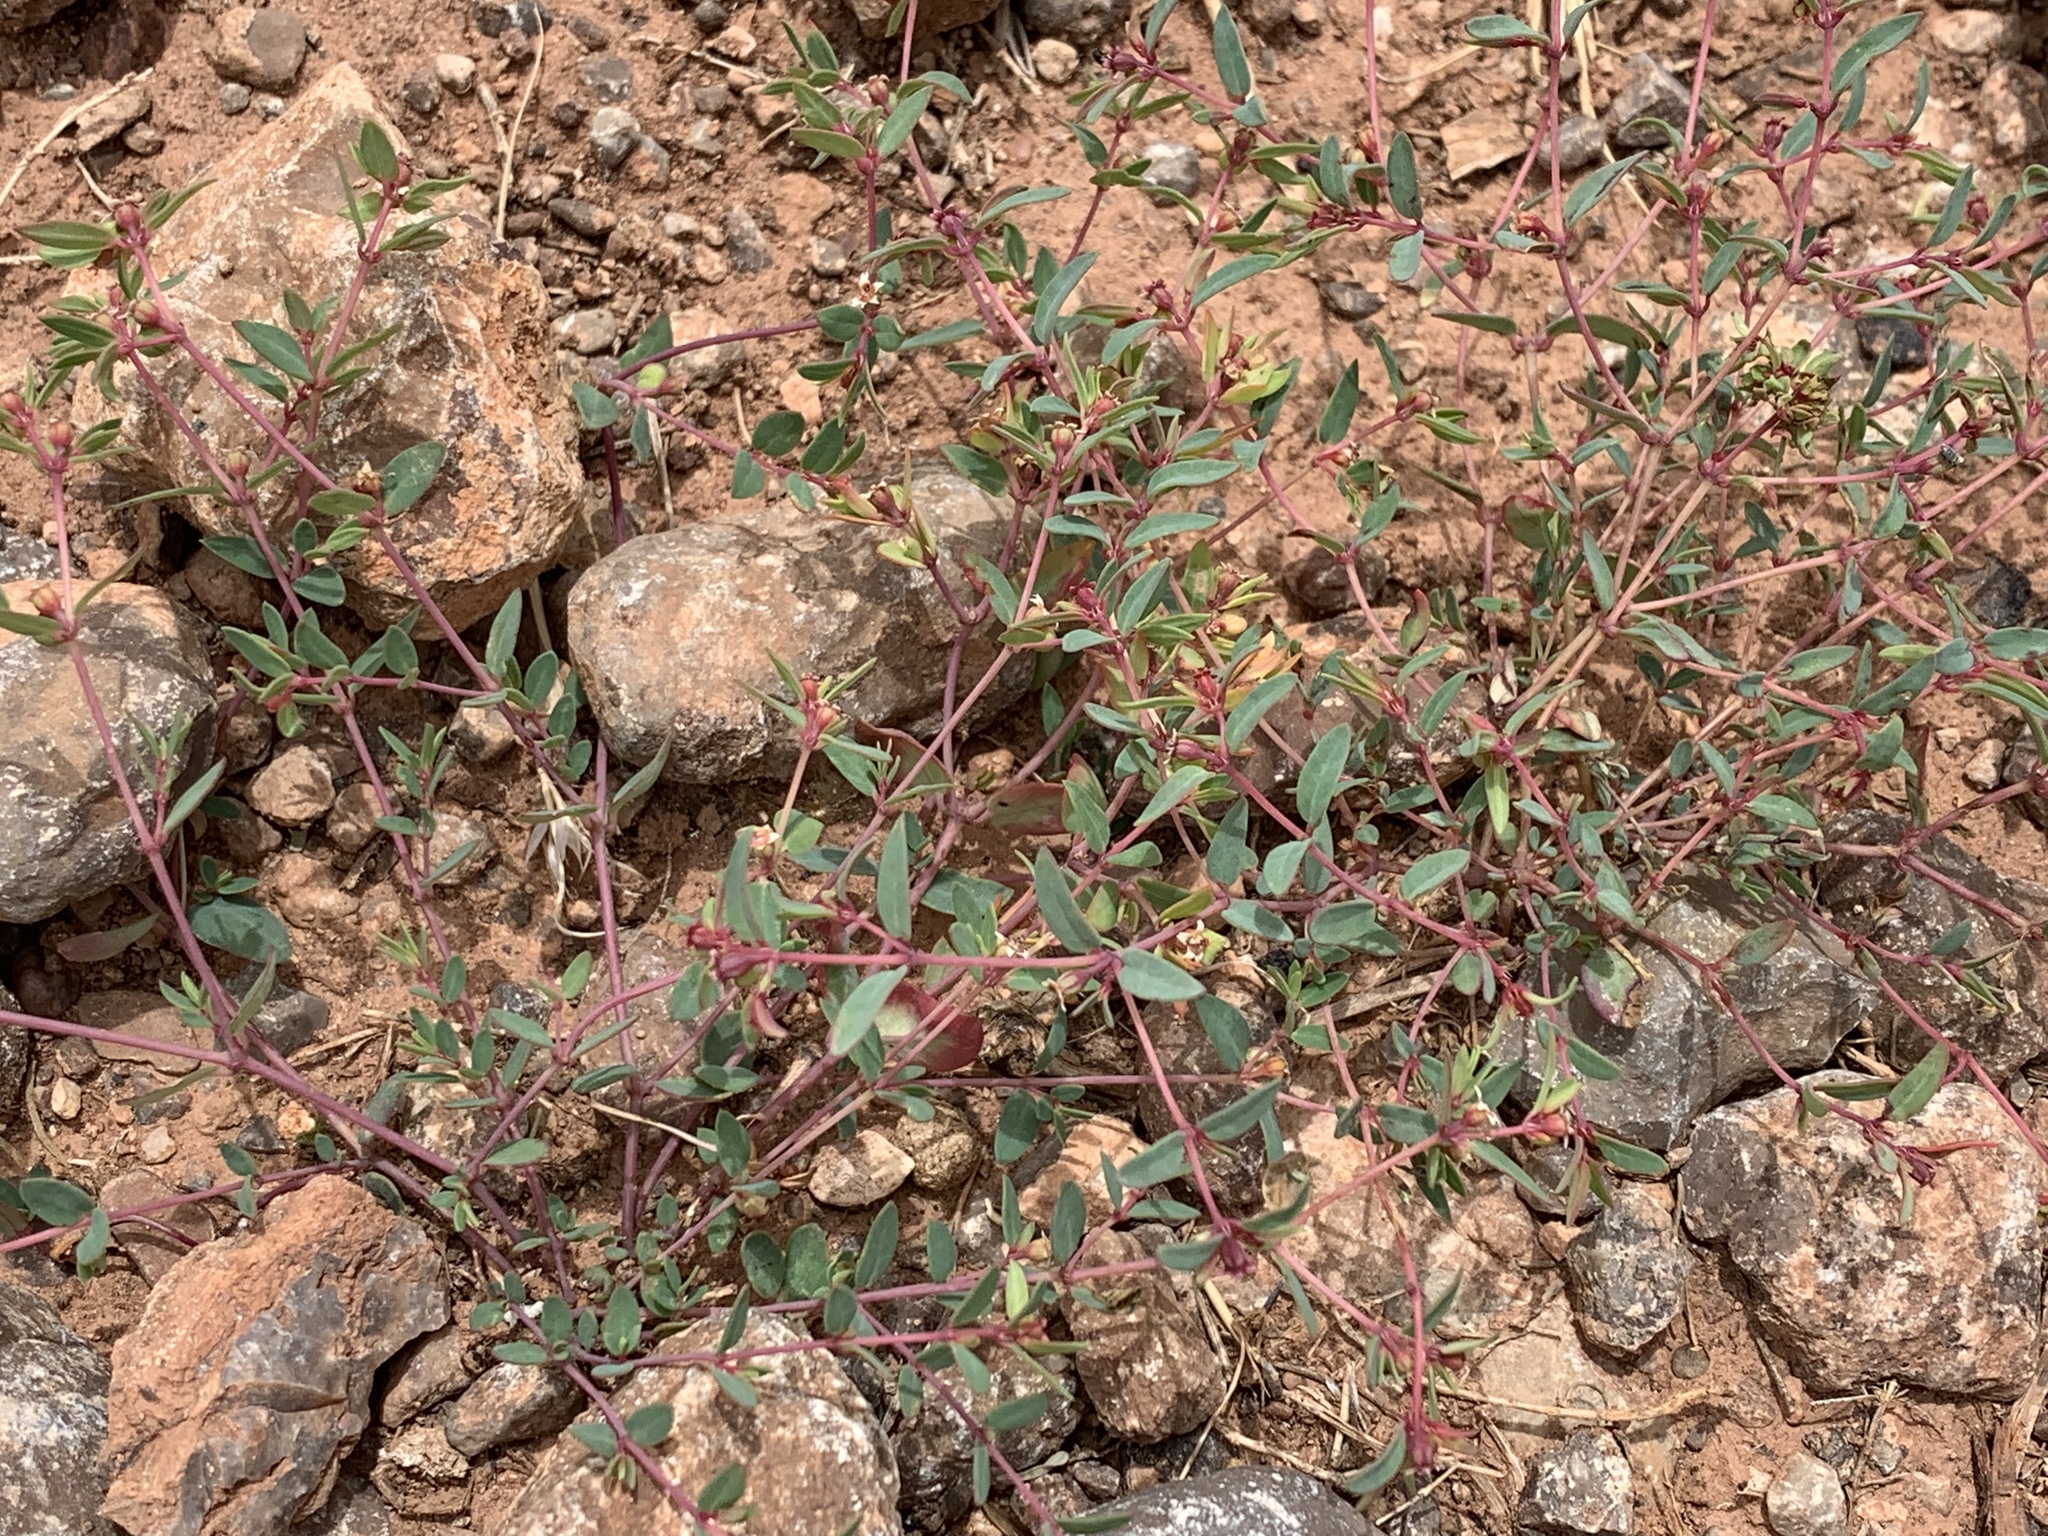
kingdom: Plantae
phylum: Tracheophyta
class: Magnoliopsida
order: Malpighiales
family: Euphorbiaceae
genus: Euphorbia
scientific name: Euphorbia fendleri
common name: Fendler's euphorbia
